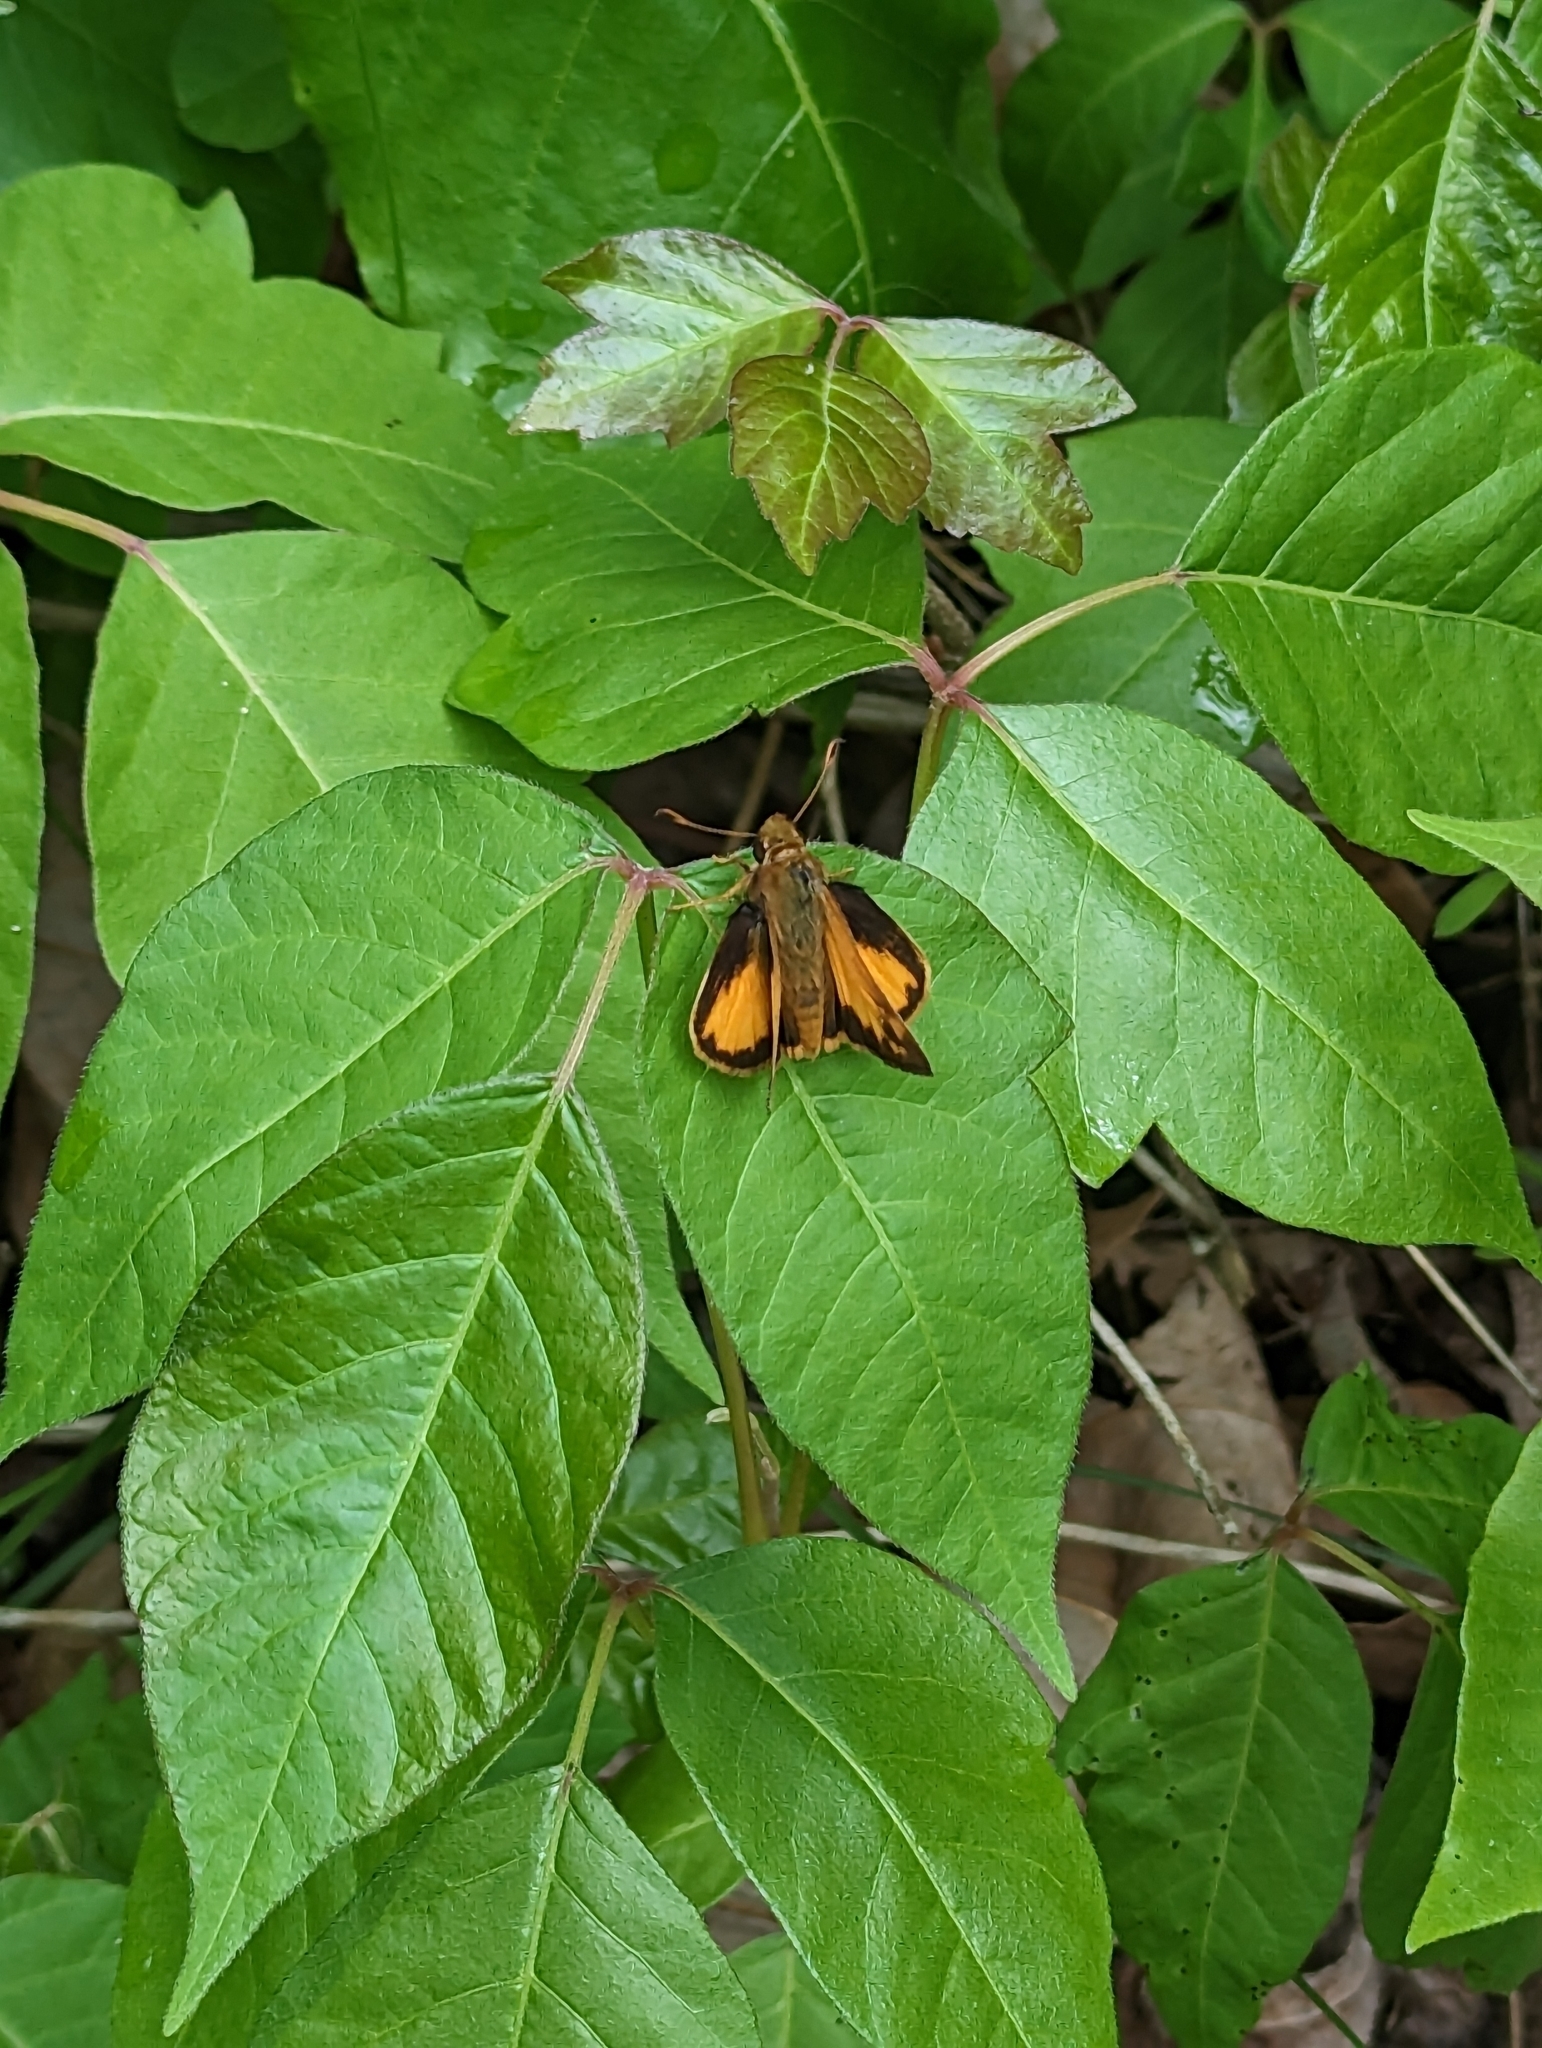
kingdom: Animalia
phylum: Arthropoda
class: Insecta
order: Lepidoptera
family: Hesperiidae
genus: Lon
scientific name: Lon zabulon
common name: Zabulon skipper
